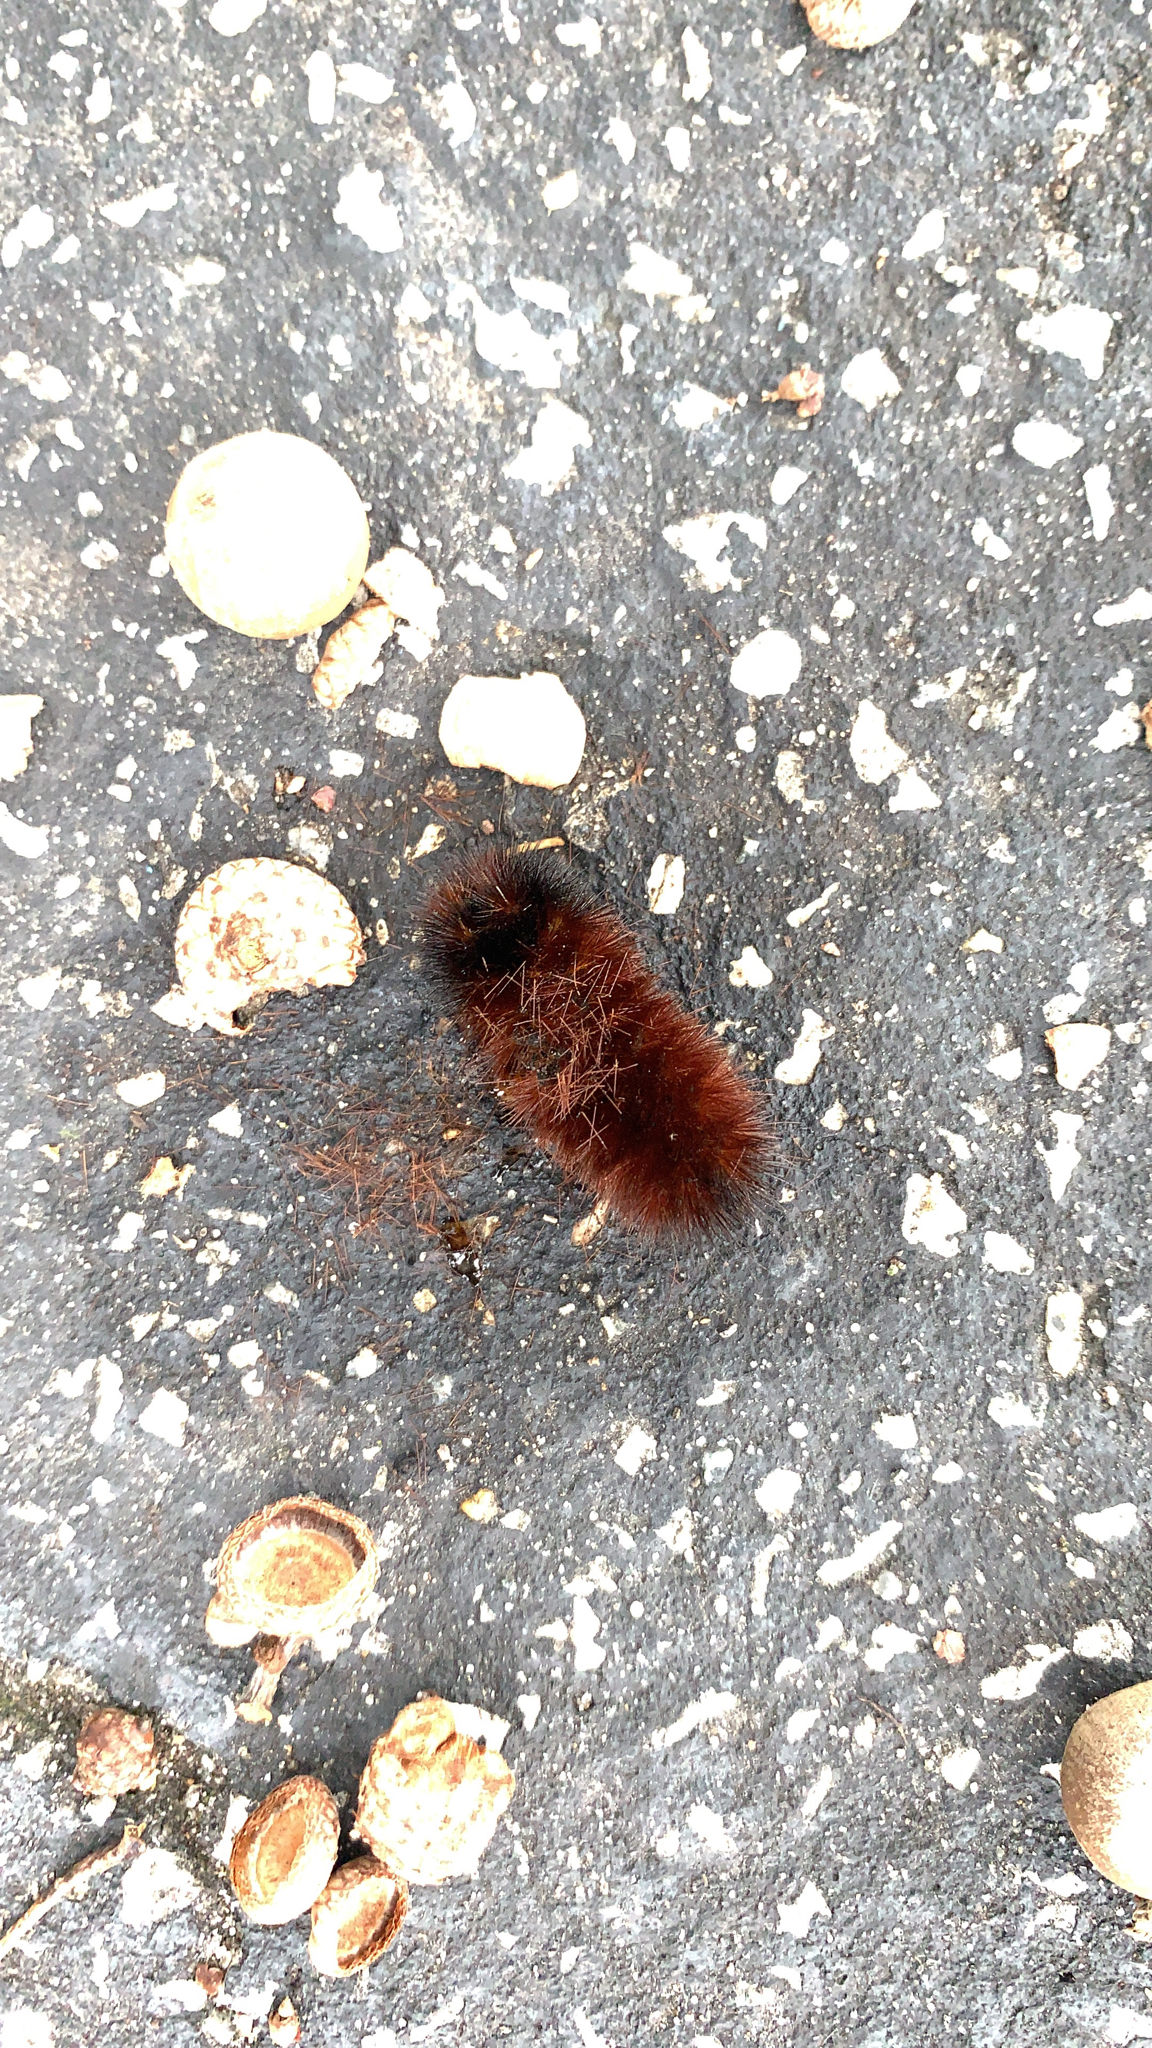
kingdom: Animalia
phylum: Arthropoda
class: Insecta
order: Lepidoptera
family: Erebidae
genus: Pyrrharctia
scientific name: Pyrrharctia isabella
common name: Isabella tiger moth
